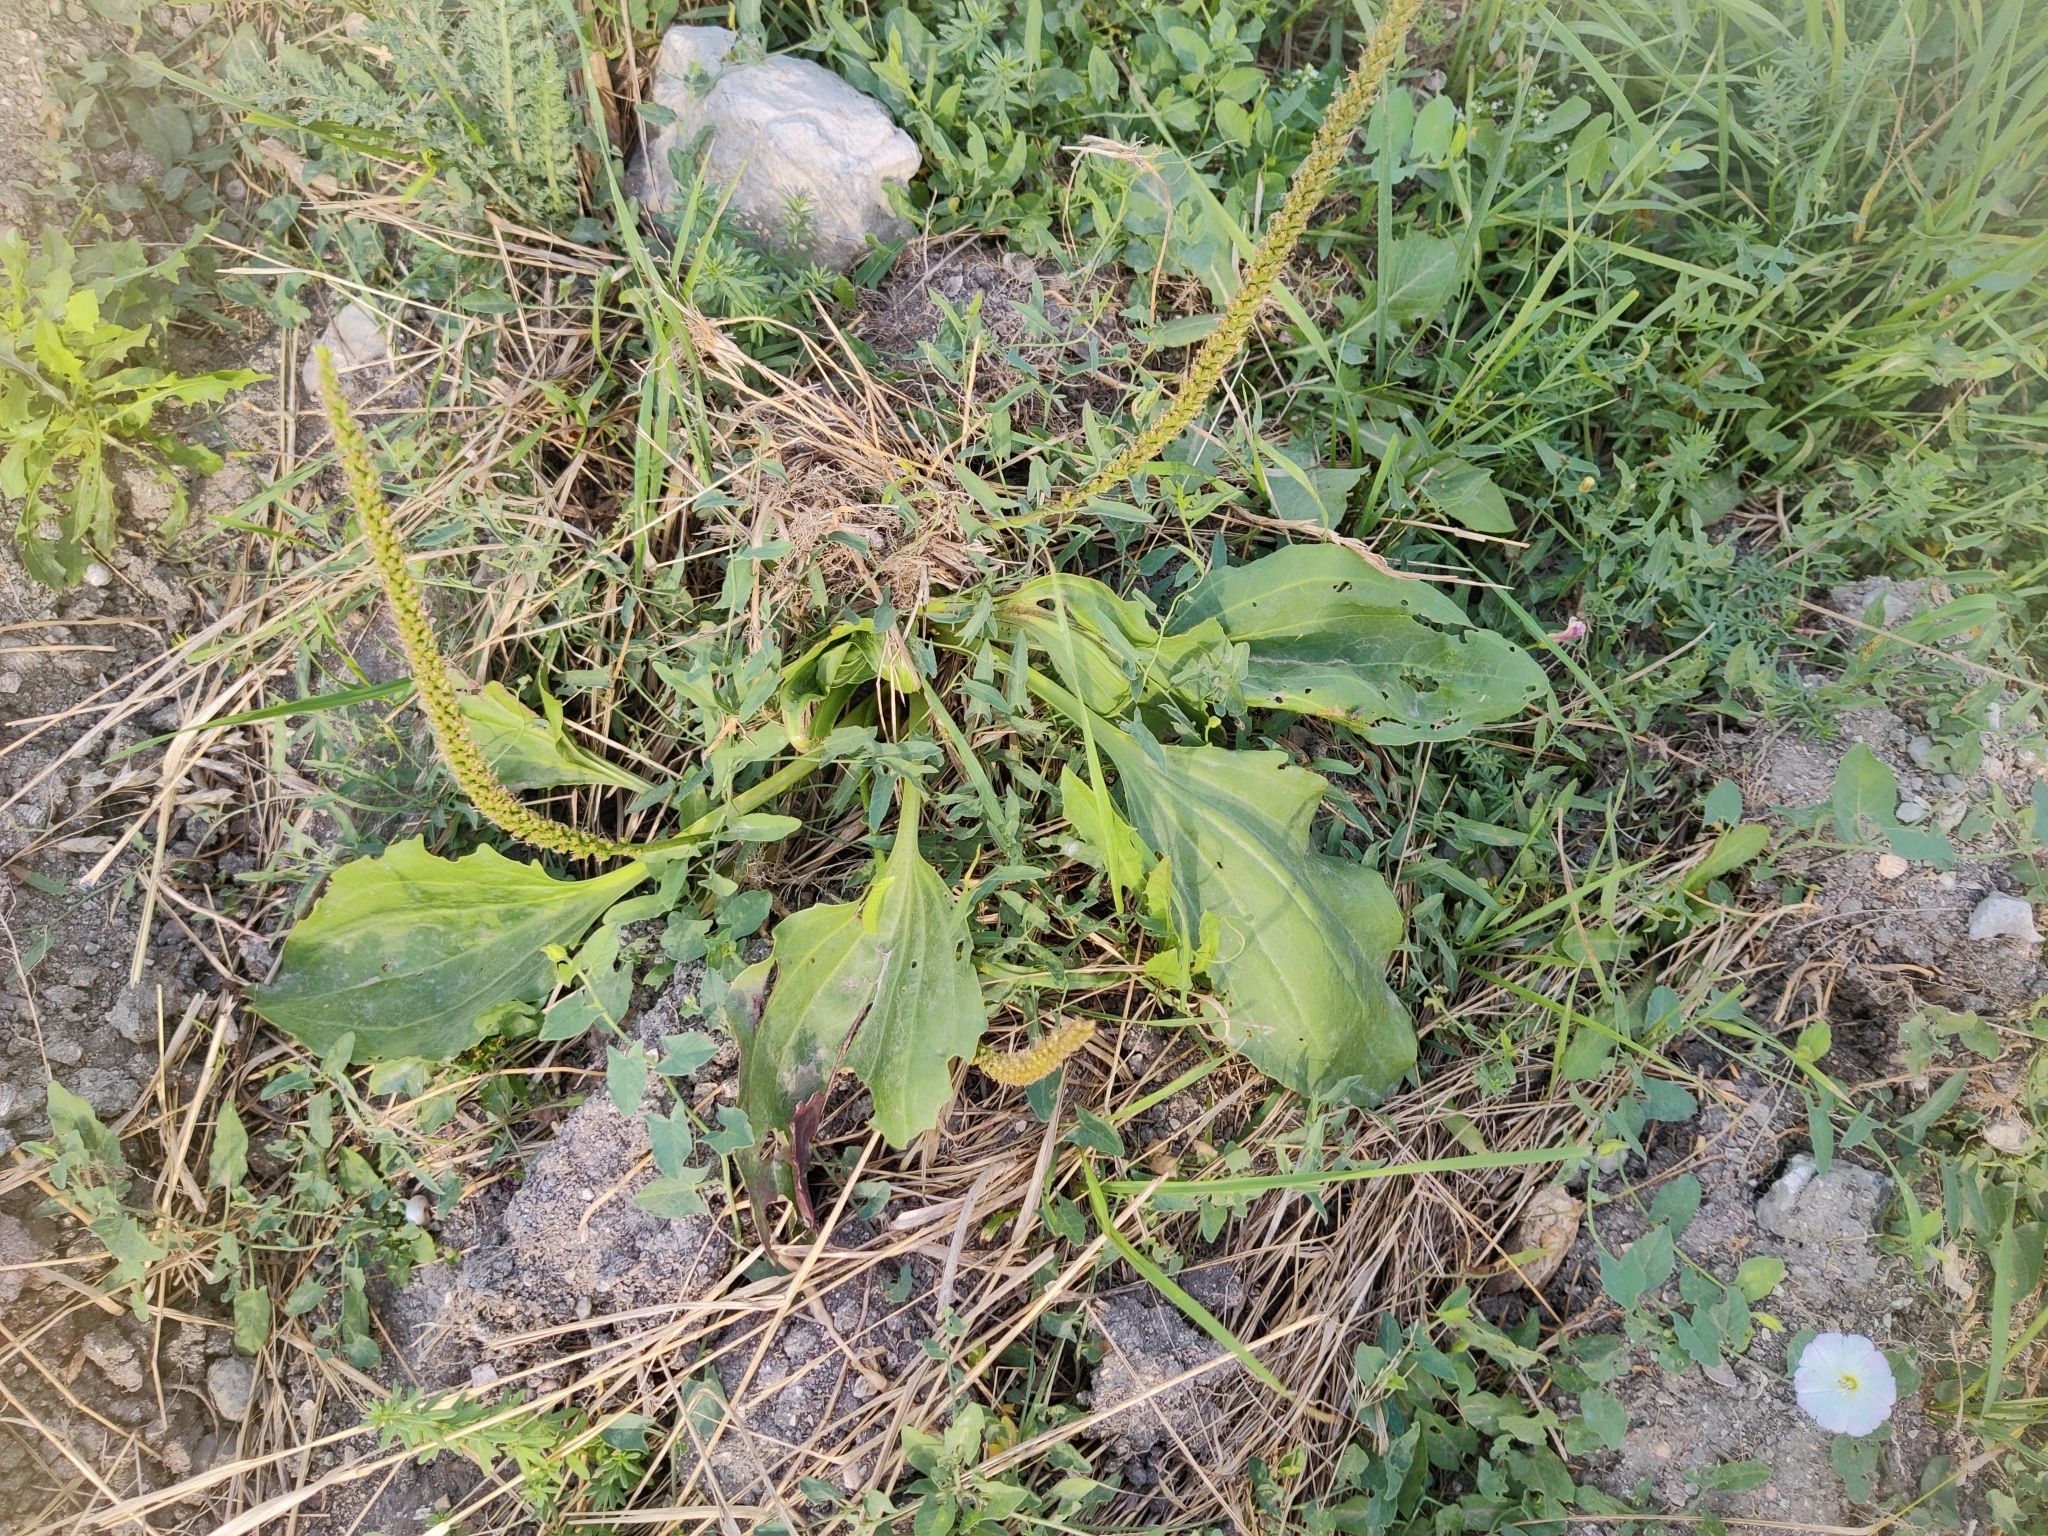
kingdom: Plantae
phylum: Tracheophyta
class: Magnoliopsida
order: Lamiales
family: Plantaginaceae
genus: Plantago
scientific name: Plantago major
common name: Common plantain
